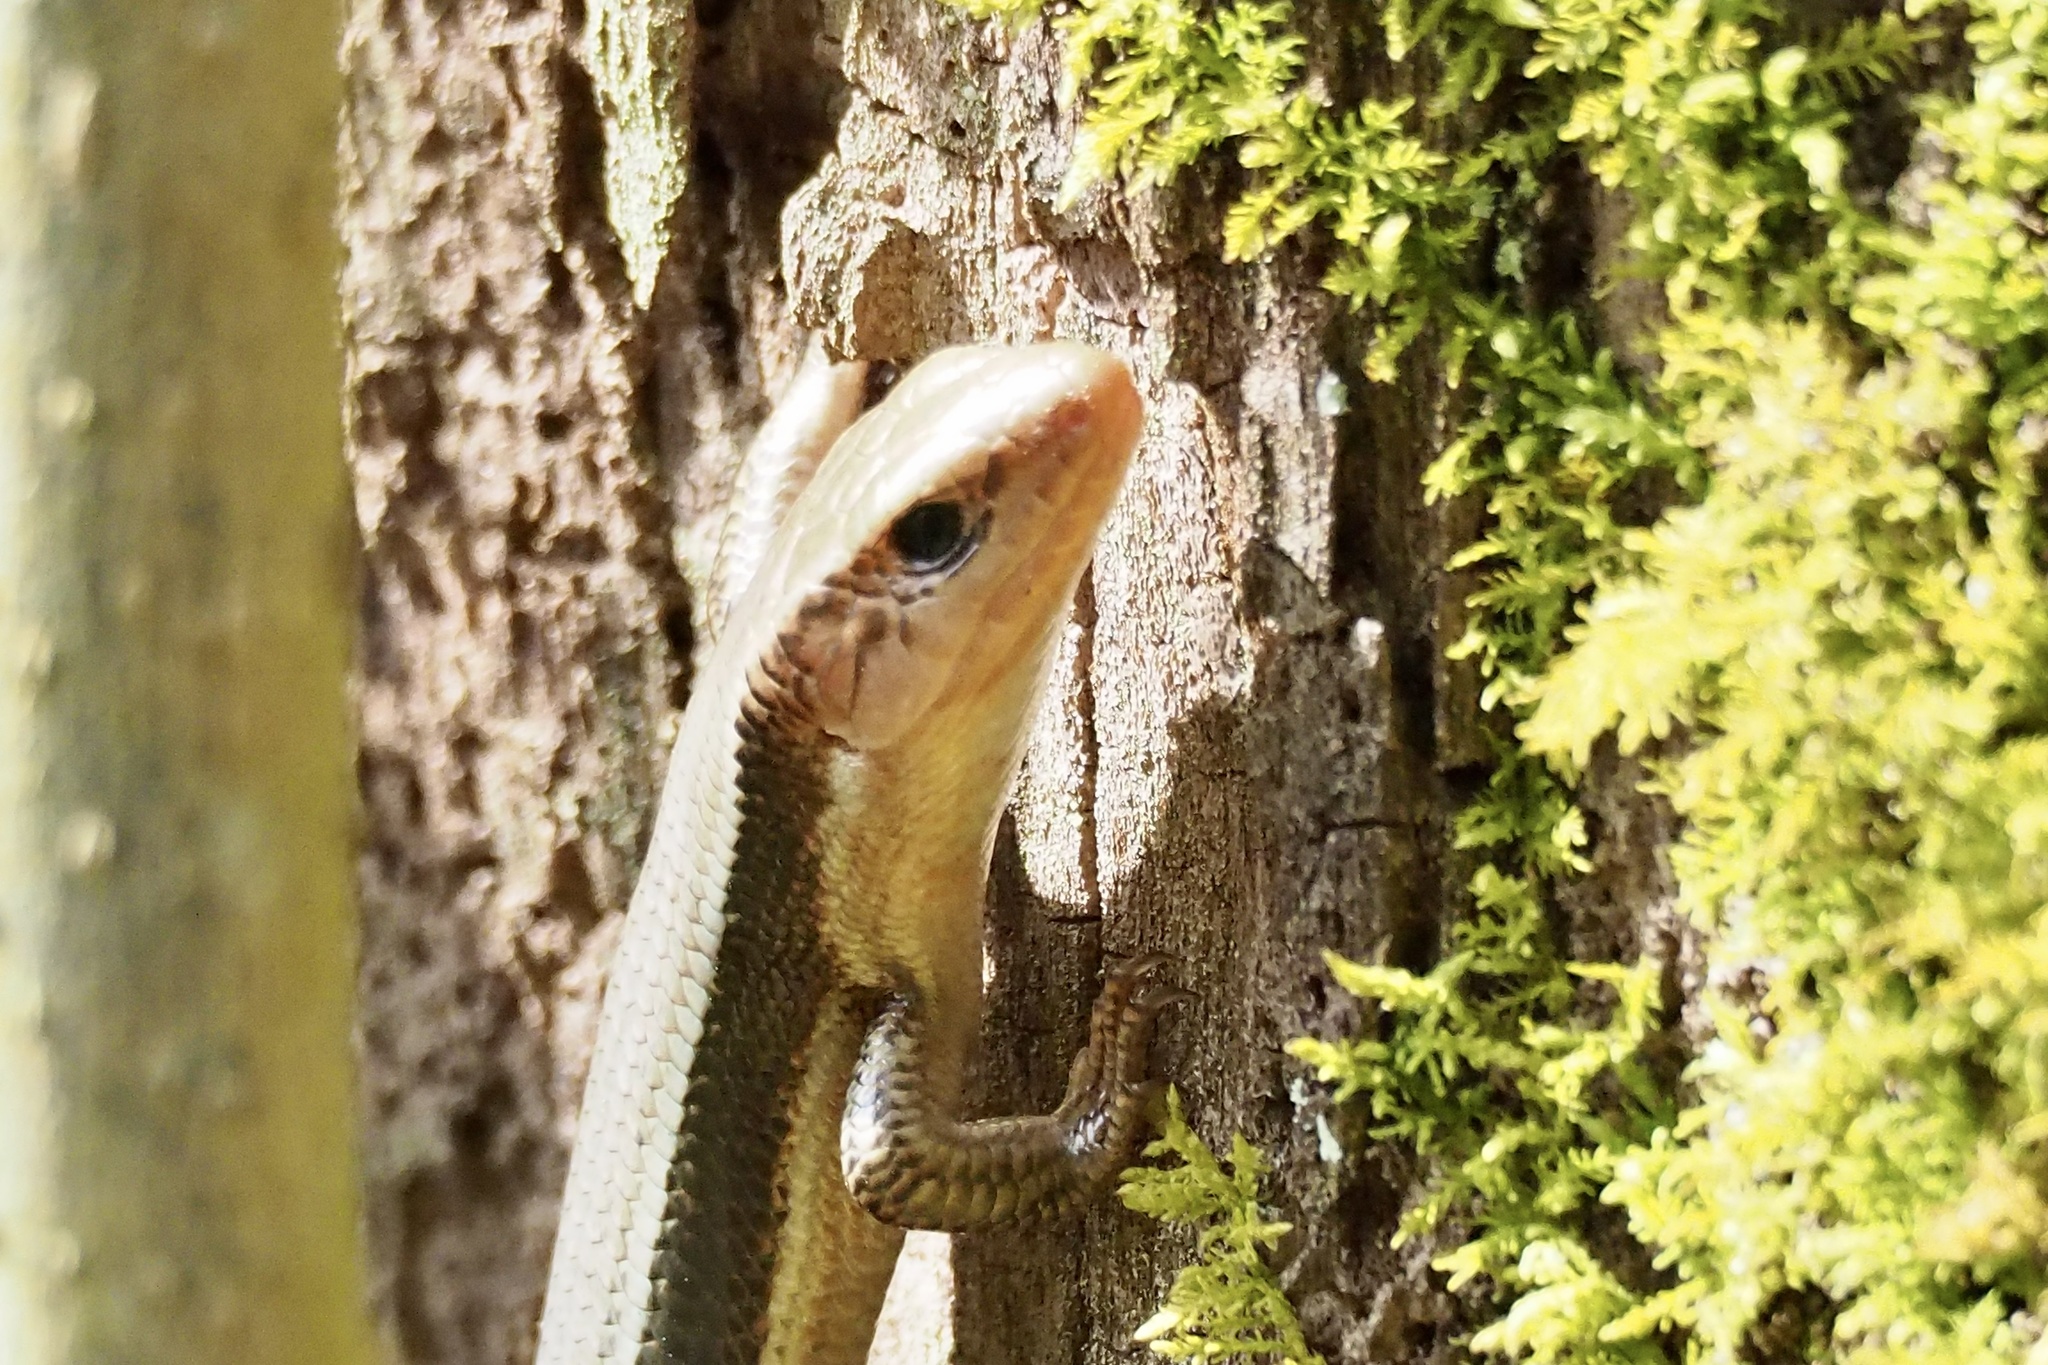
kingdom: Animalia
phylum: Chordata
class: Squamata
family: Scincidae
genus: Plestiodon
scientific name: Plestiodon japonicus
